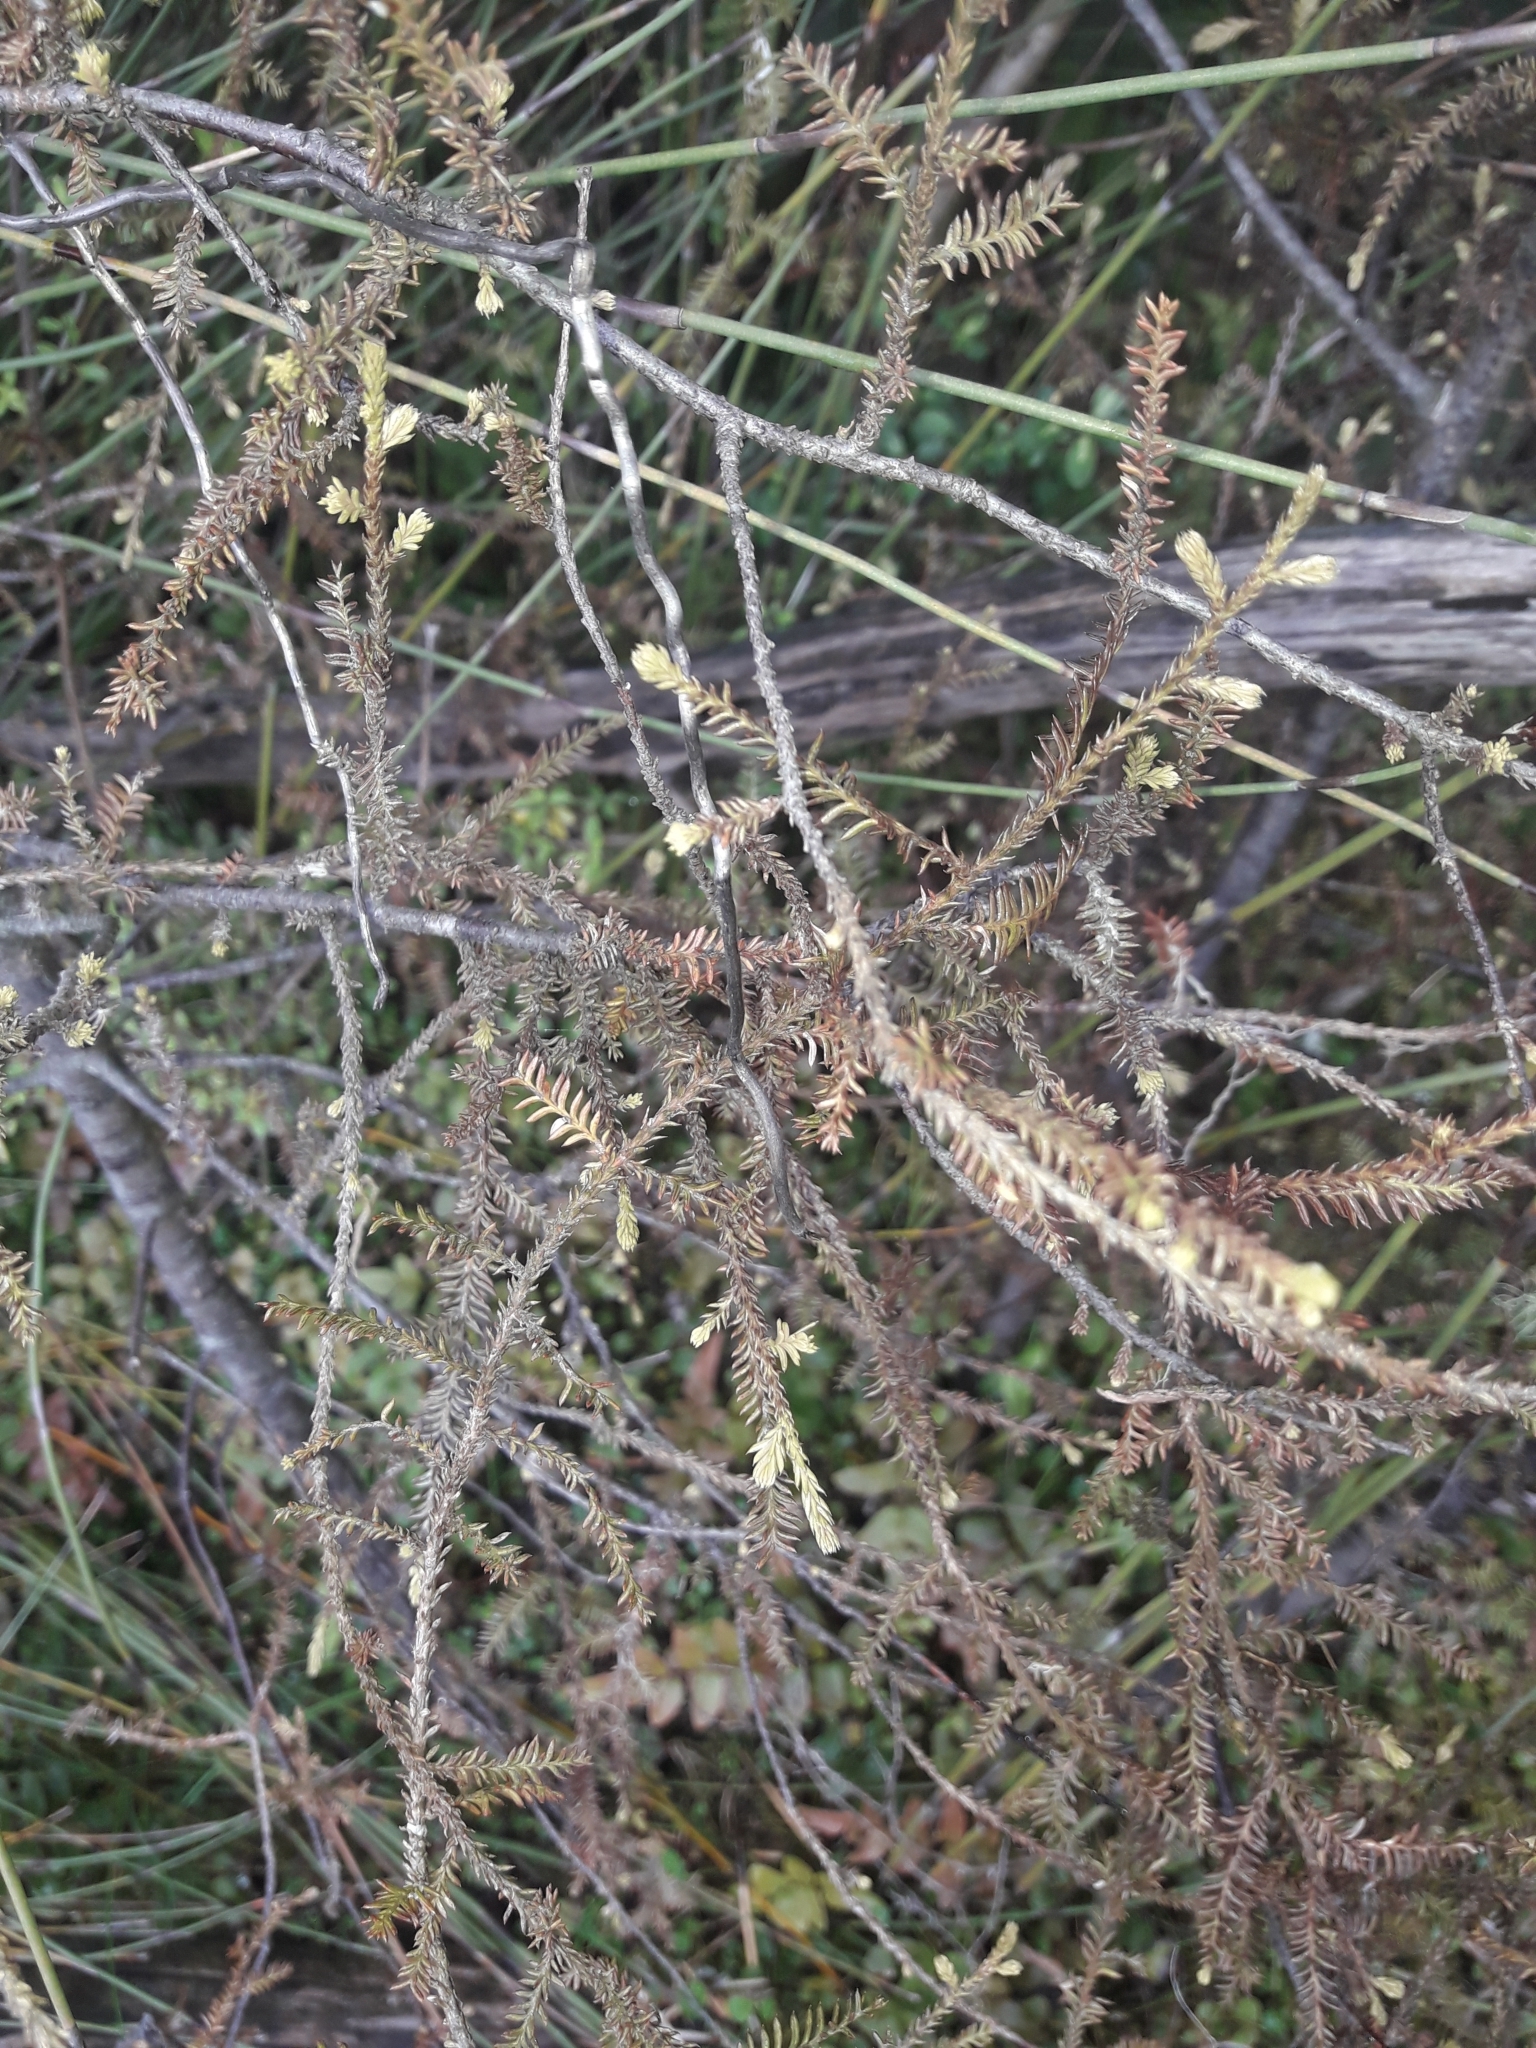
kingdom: Plantae
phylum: Tracheophyta
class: Pinopsida
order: Pinales
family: Podocarpaceae
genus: Dacrycarpus
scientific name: Dacrycarpus dacrydioides
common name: White pine
